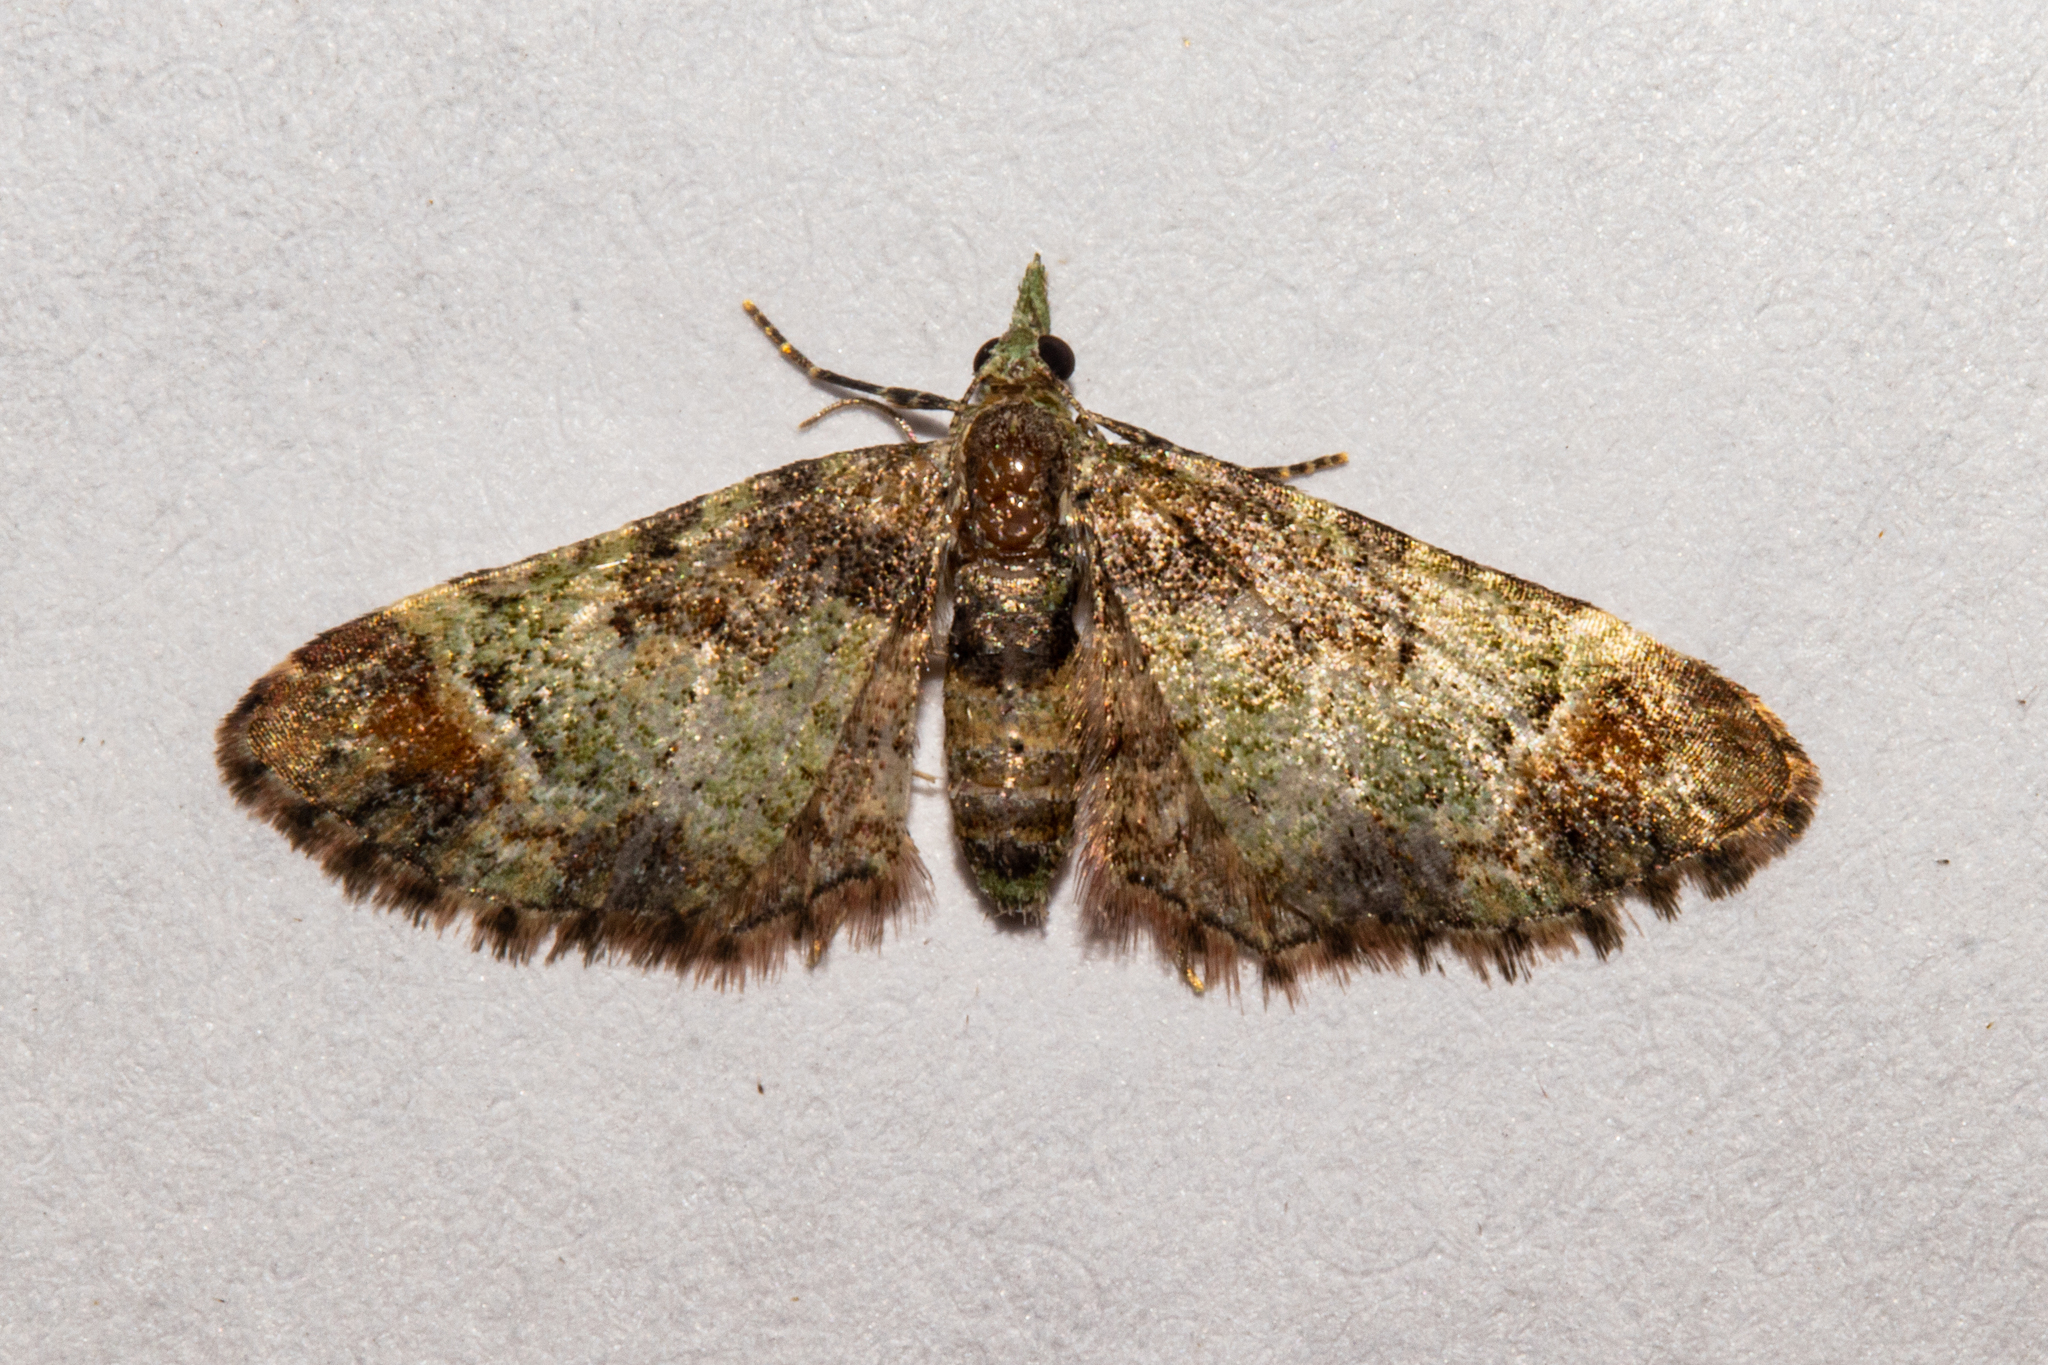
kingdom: Animalia
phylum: Arthropoda
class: Insecta
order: Lepidoptera
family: Geometridae
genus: Pasiphila
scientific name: Pasiphila sandycias
